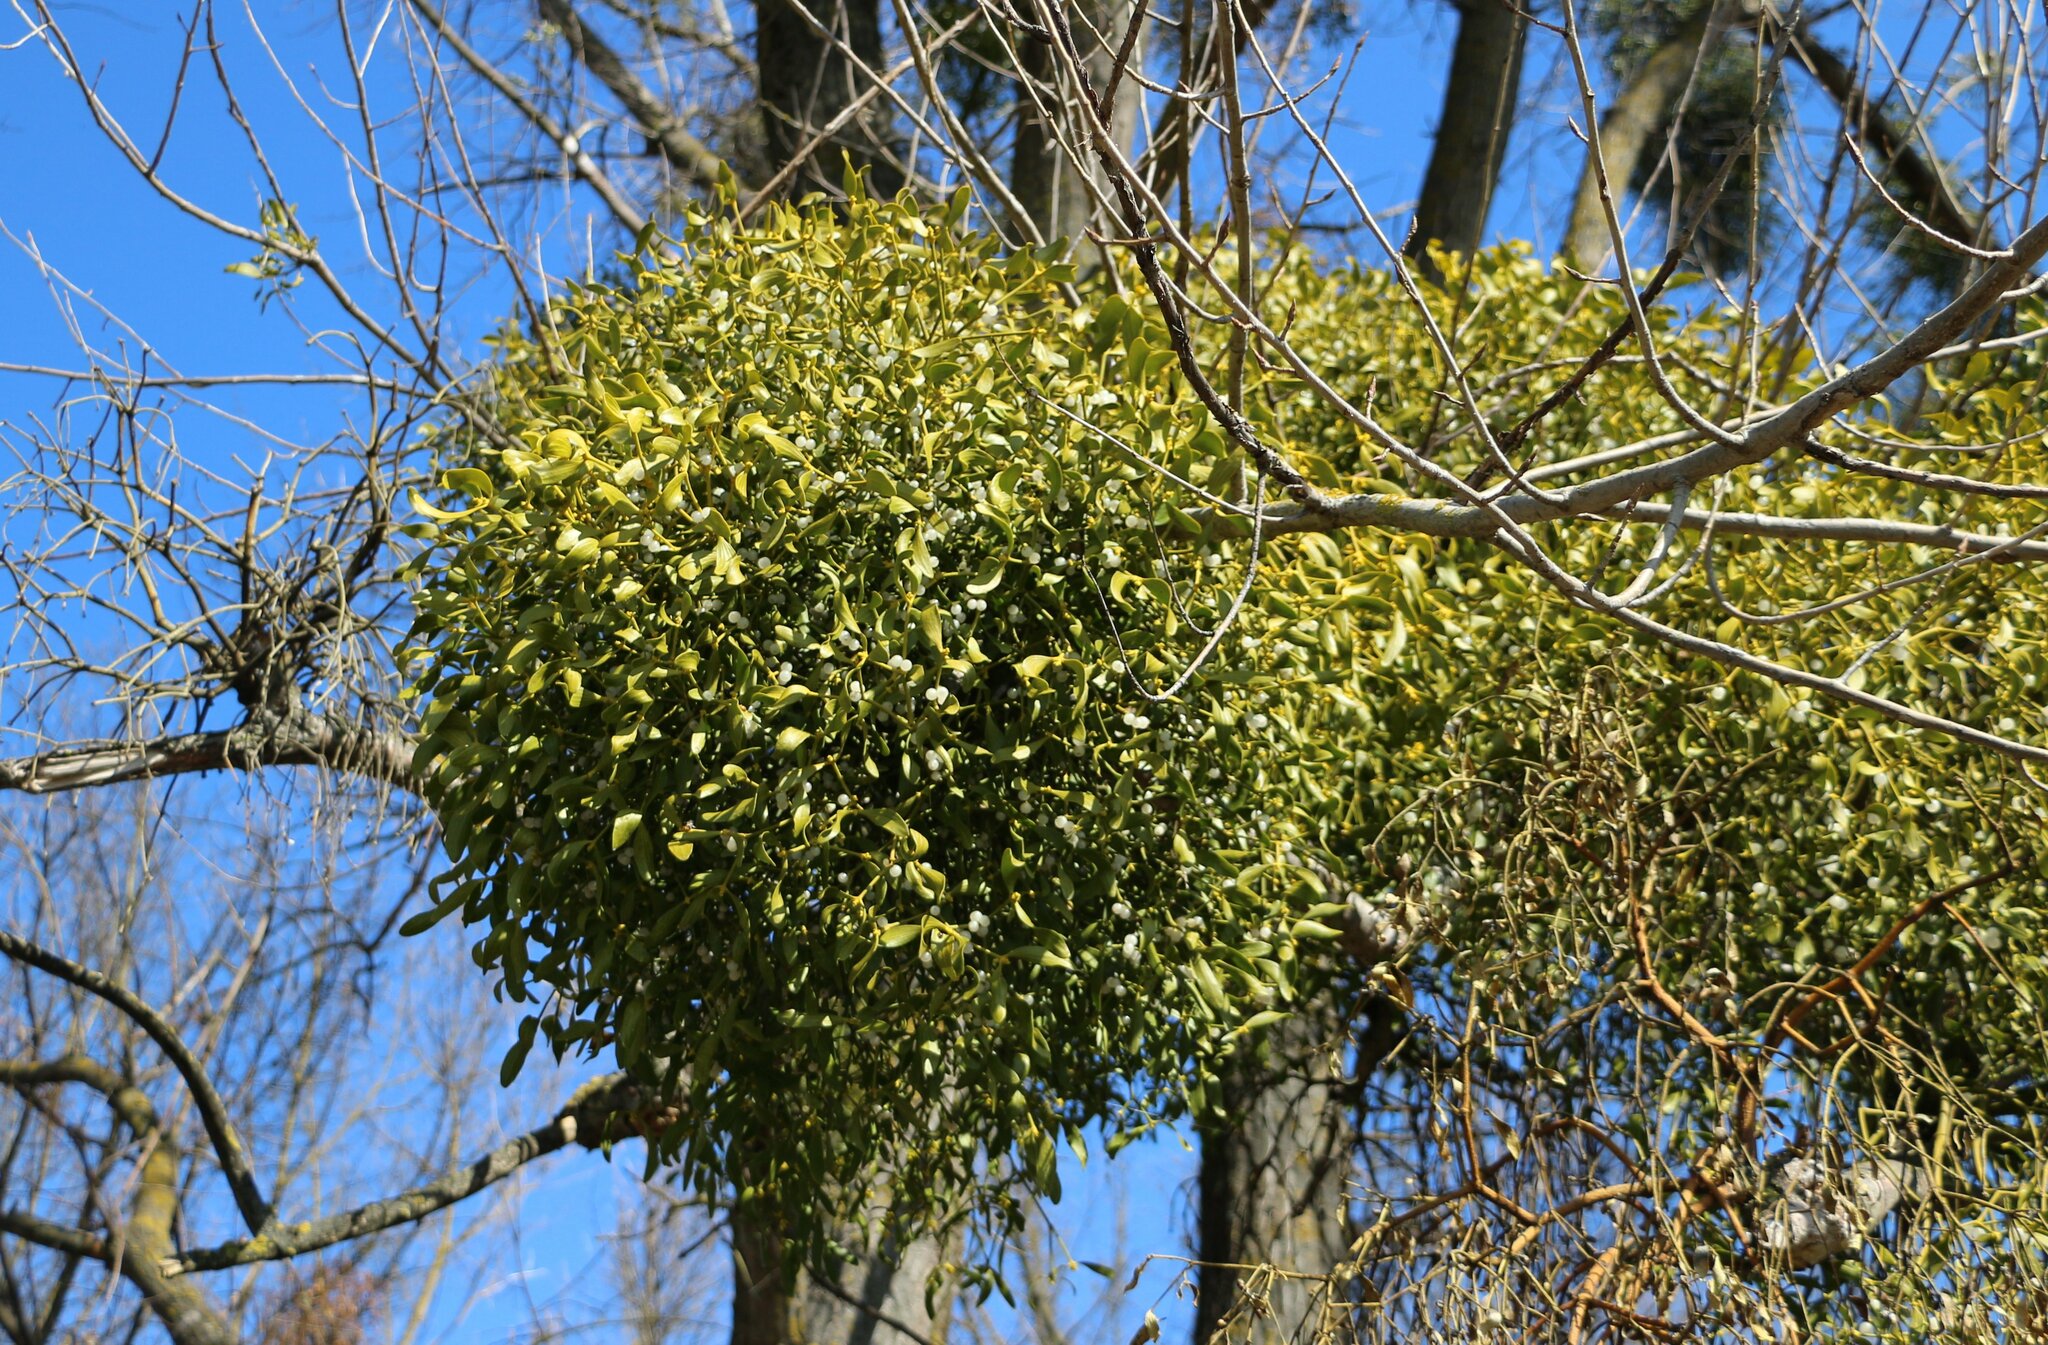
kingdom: Plantae
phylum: Tracheophyta
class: Magnoliopsida
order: Santalales
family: Viscaceae
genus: Viscum
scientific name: Viscum album
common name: Mistletoe
